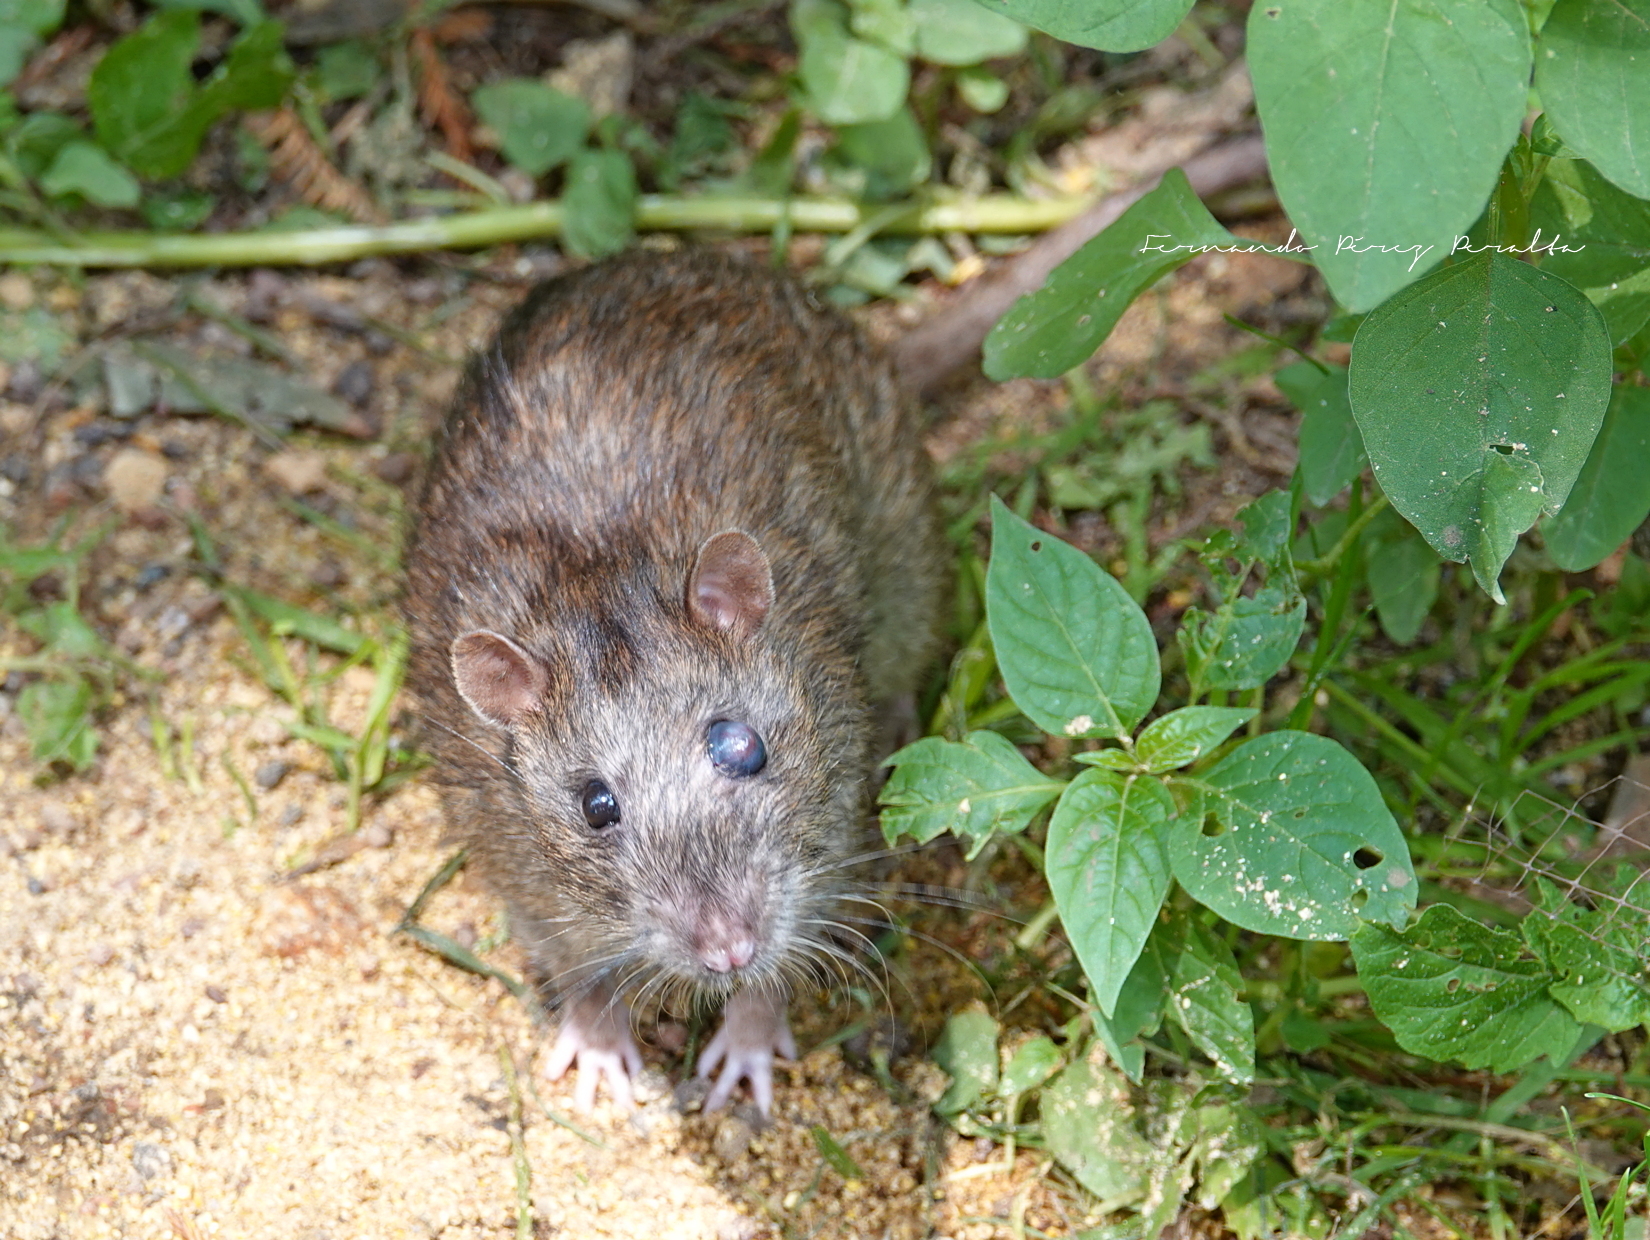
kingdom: Animalia
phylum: Chordata
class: Mammalia
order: Rodentia
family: Muridae
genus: Rattus
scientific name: Rattus norvegicus
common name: Brown rat
